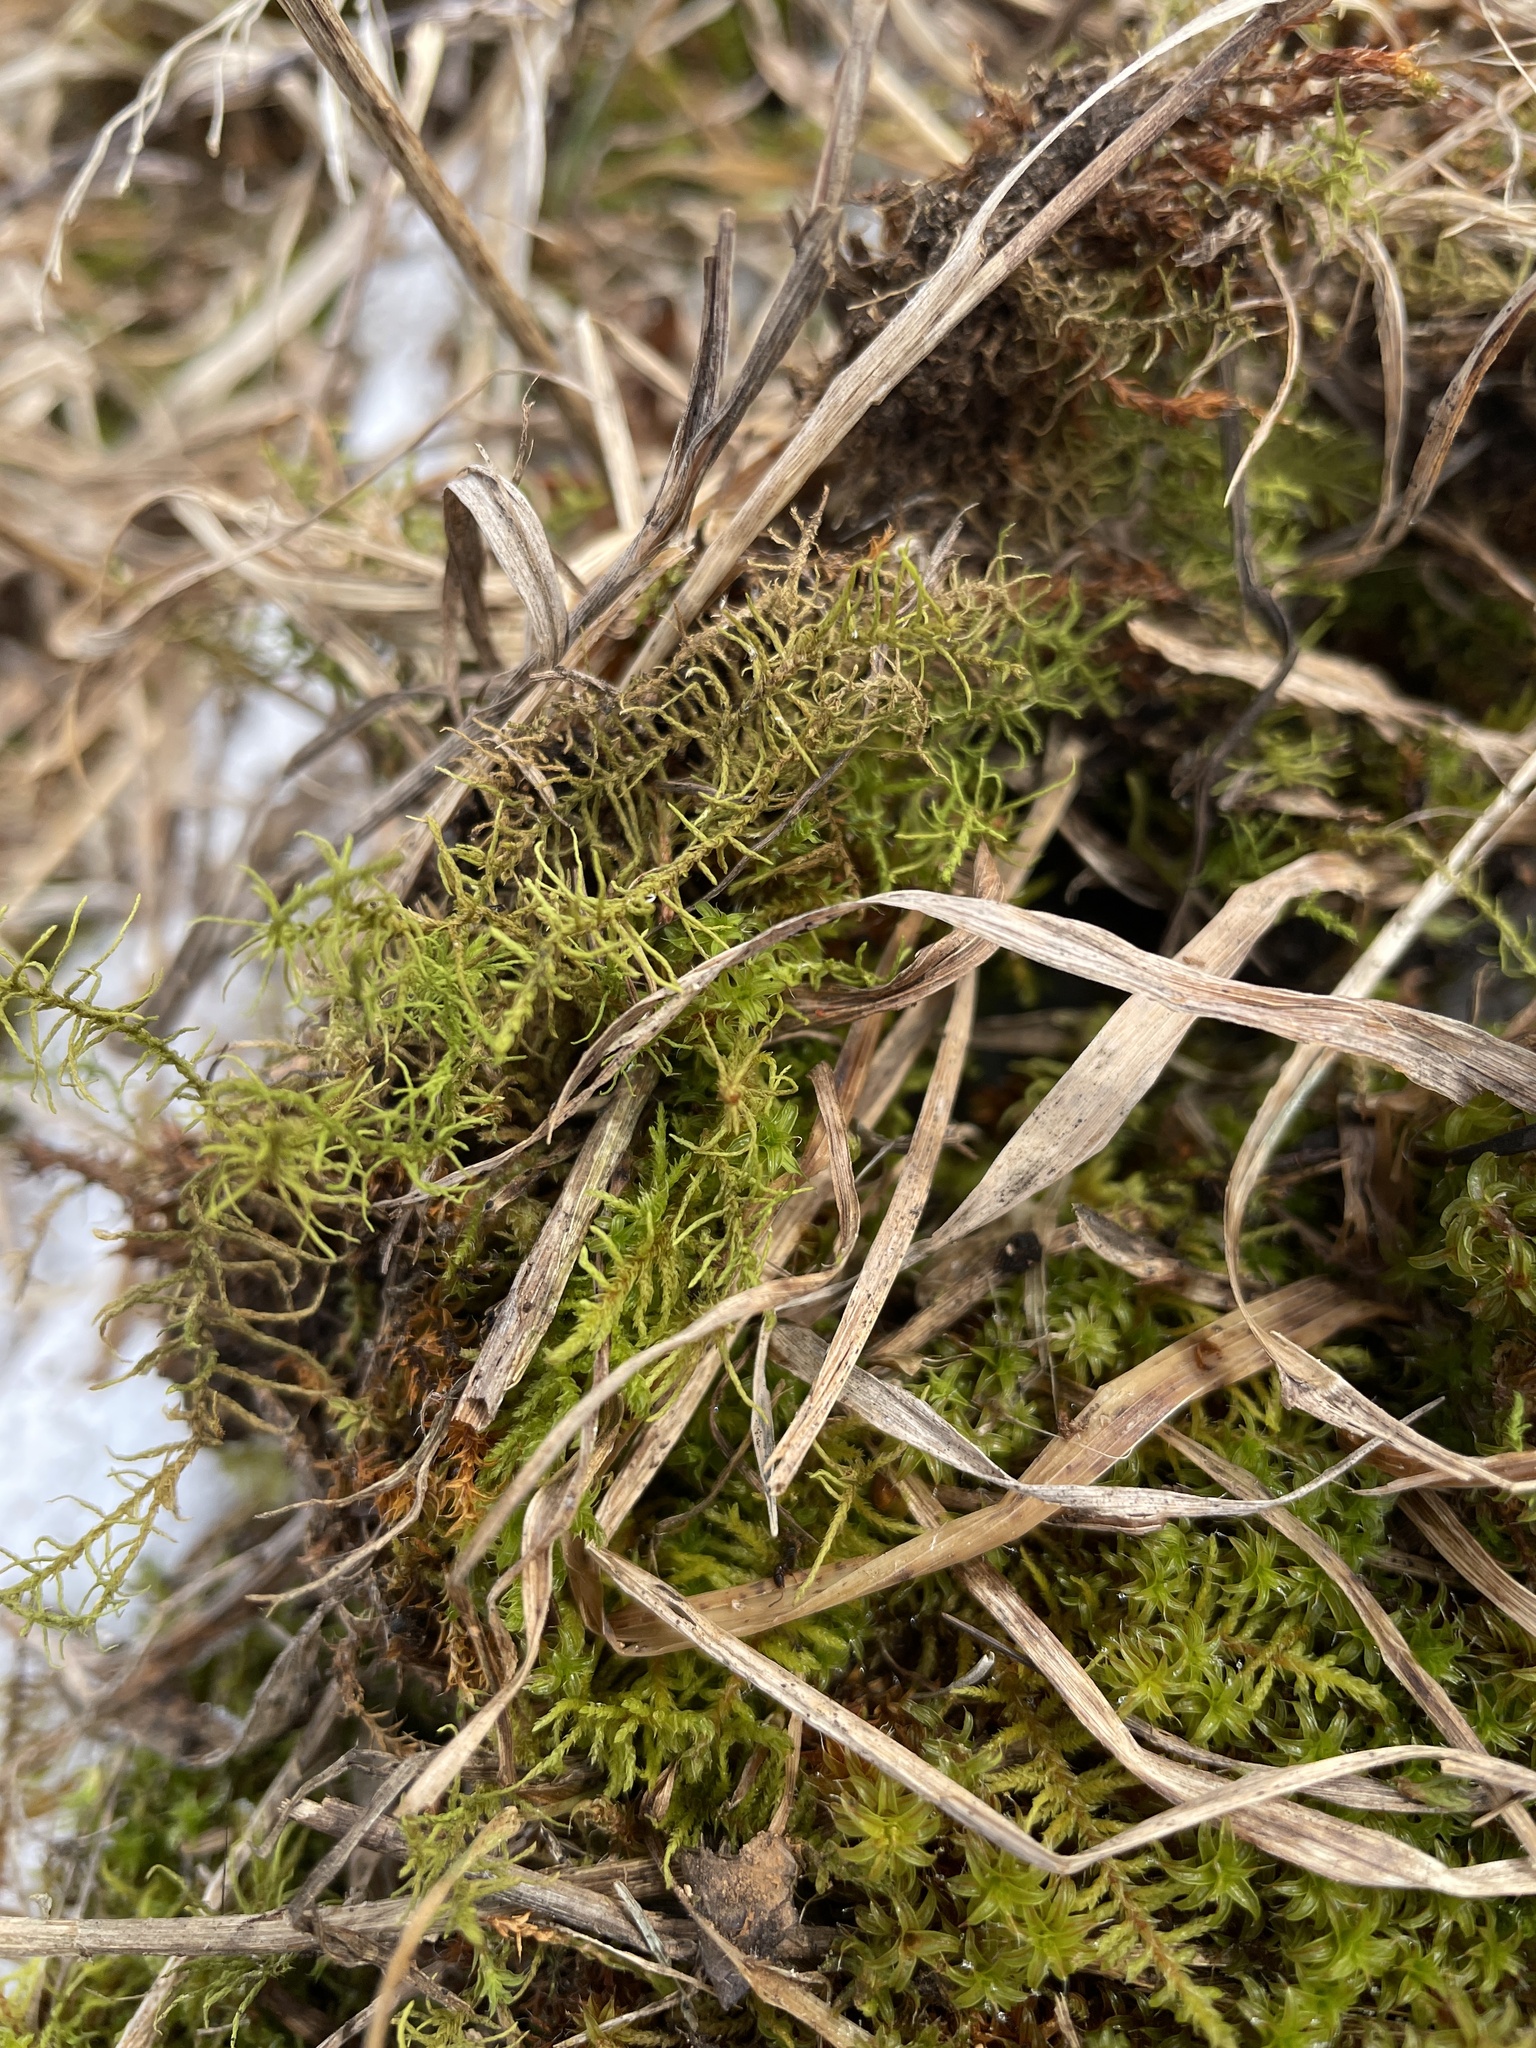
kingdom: Plantae
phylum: Bryophyta
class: Bryopsida
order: Hypnales
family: Thuidiaceae
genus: Abietinella
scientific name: Abietinella abietina
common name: Wiry fern moss
